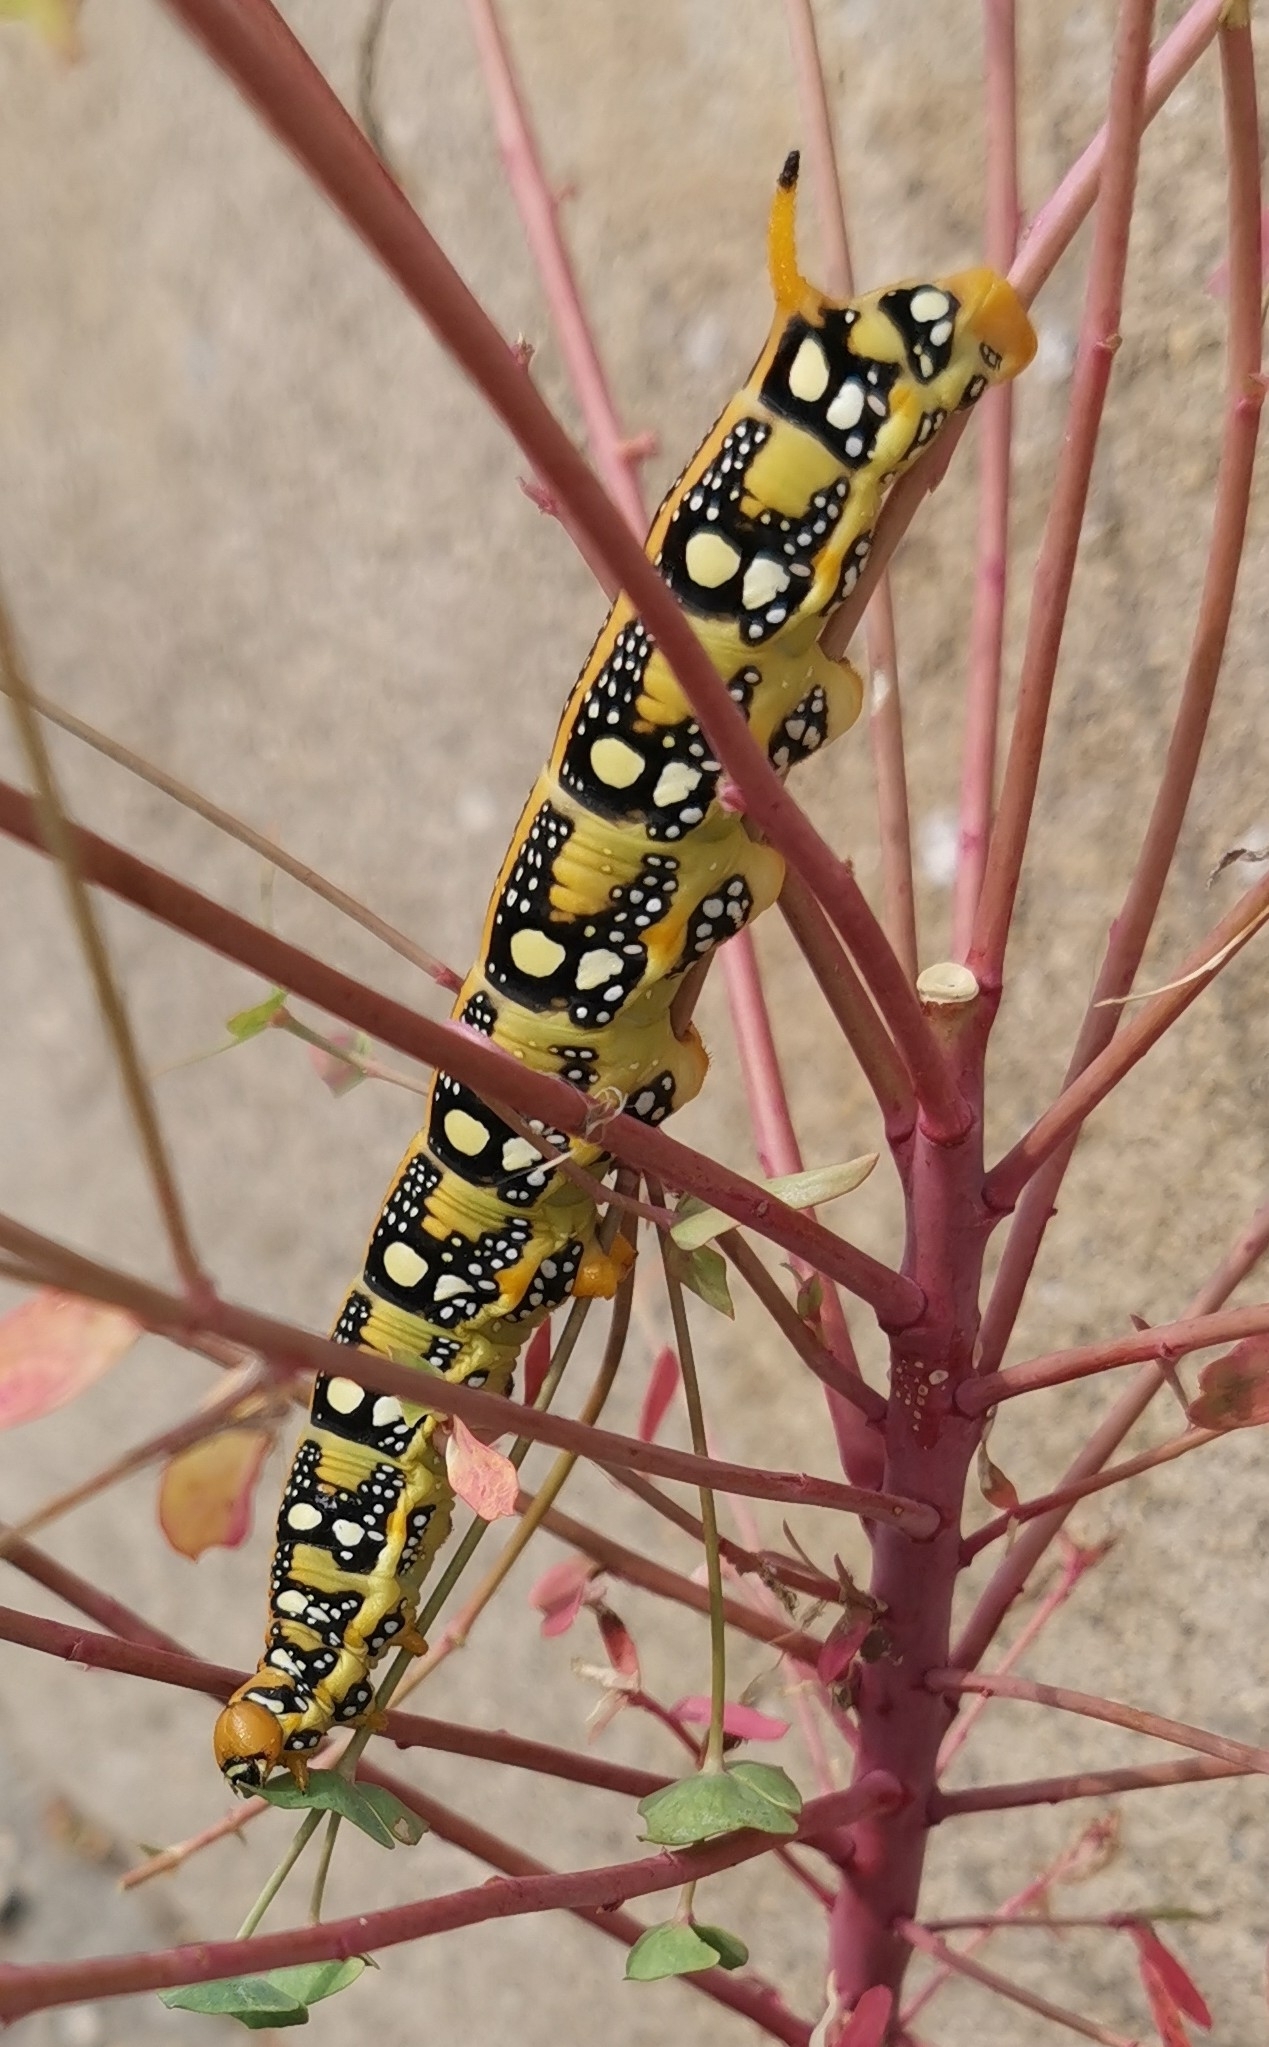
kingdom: Animalia
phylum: Arthropoda
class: Insecta
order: Lepidoptera
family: Sphingidae
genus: Hyles
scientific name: Hyles euphorbiae
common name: Spurge hawk-moth
